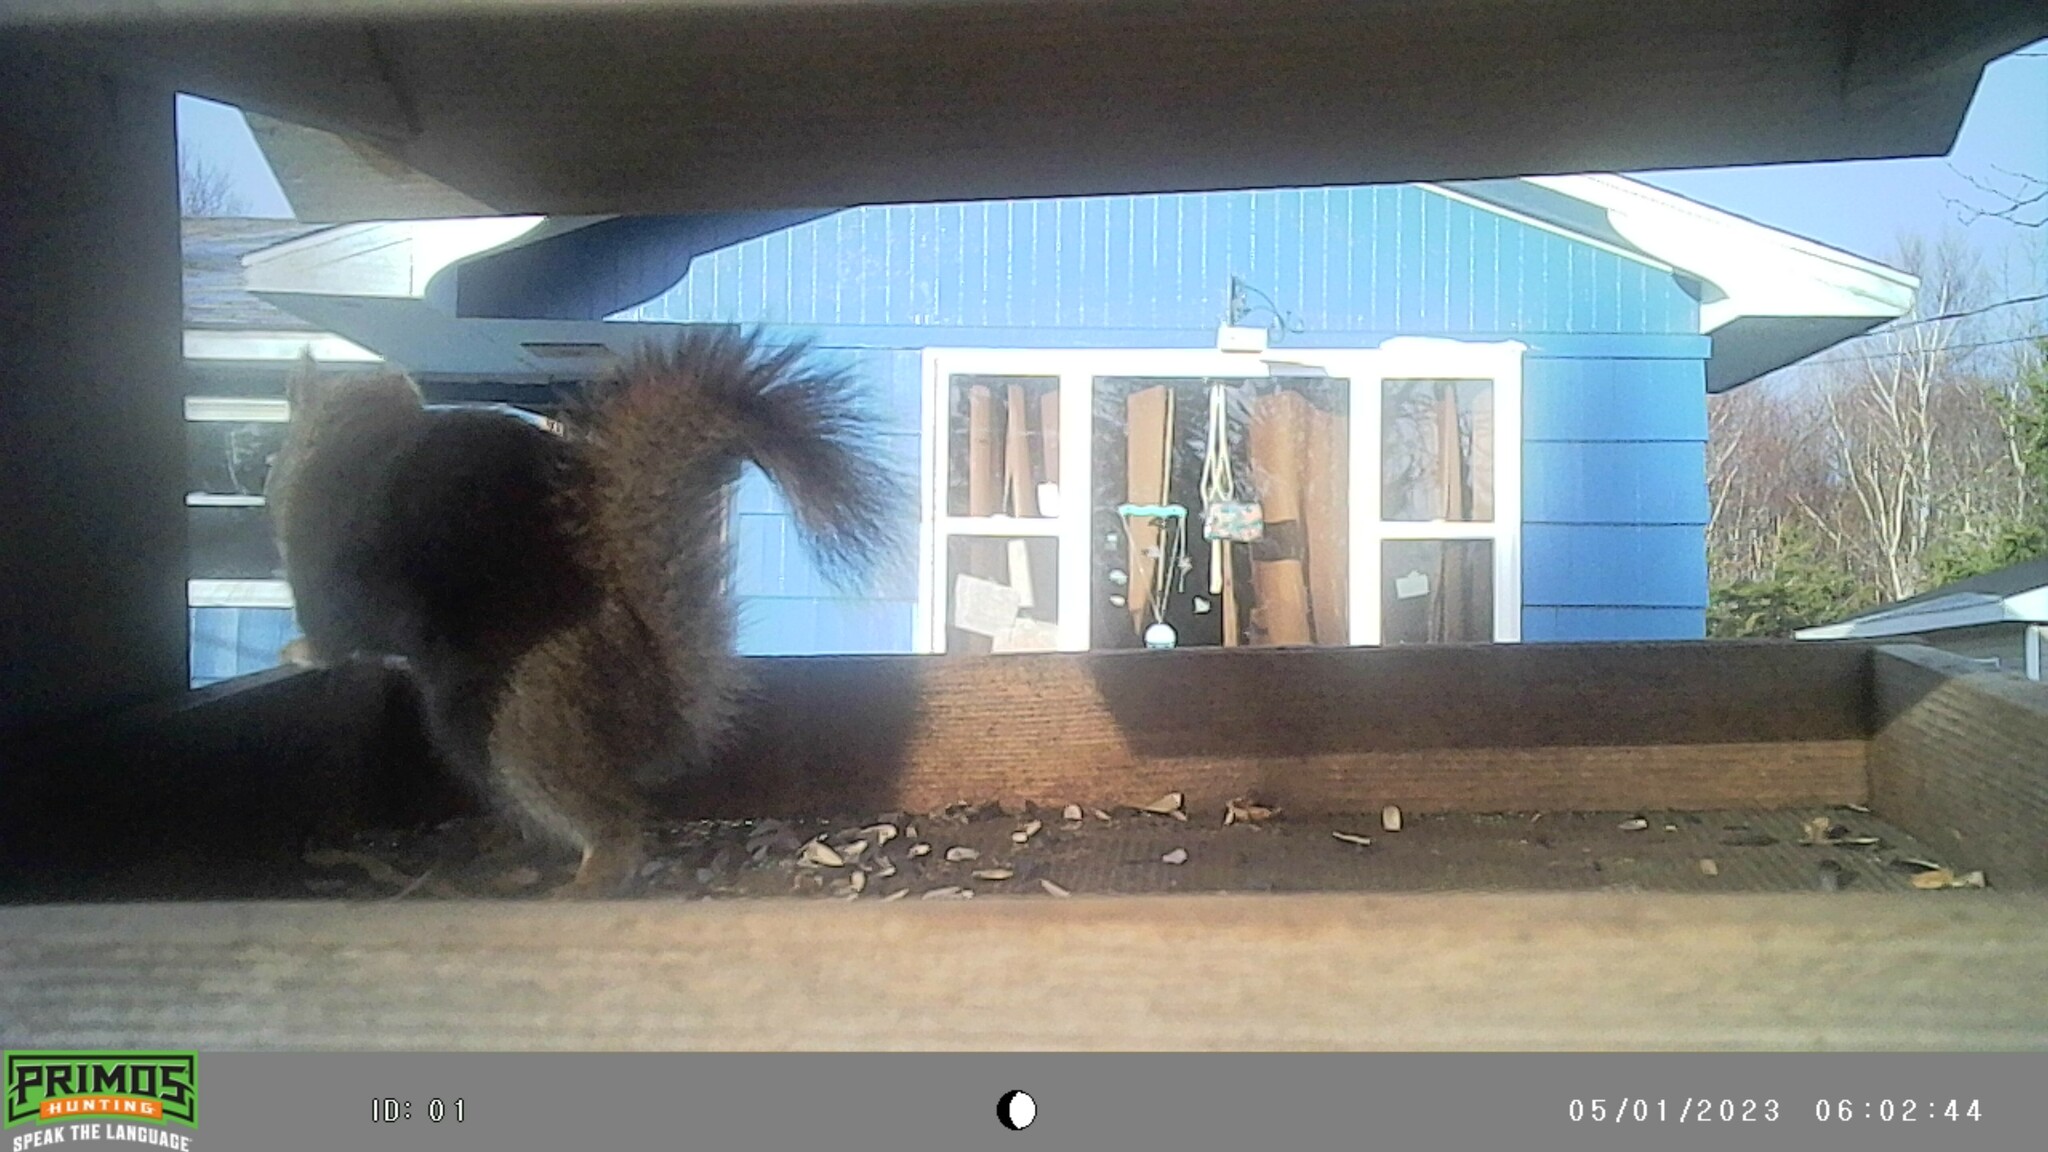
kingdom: Animalia
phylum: Chordata
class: Mammalia
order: Rodentia
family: Sciuridae
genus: Tamiasciurus
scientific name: Tamiasciurus hudsonicus
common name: Red squirrel
